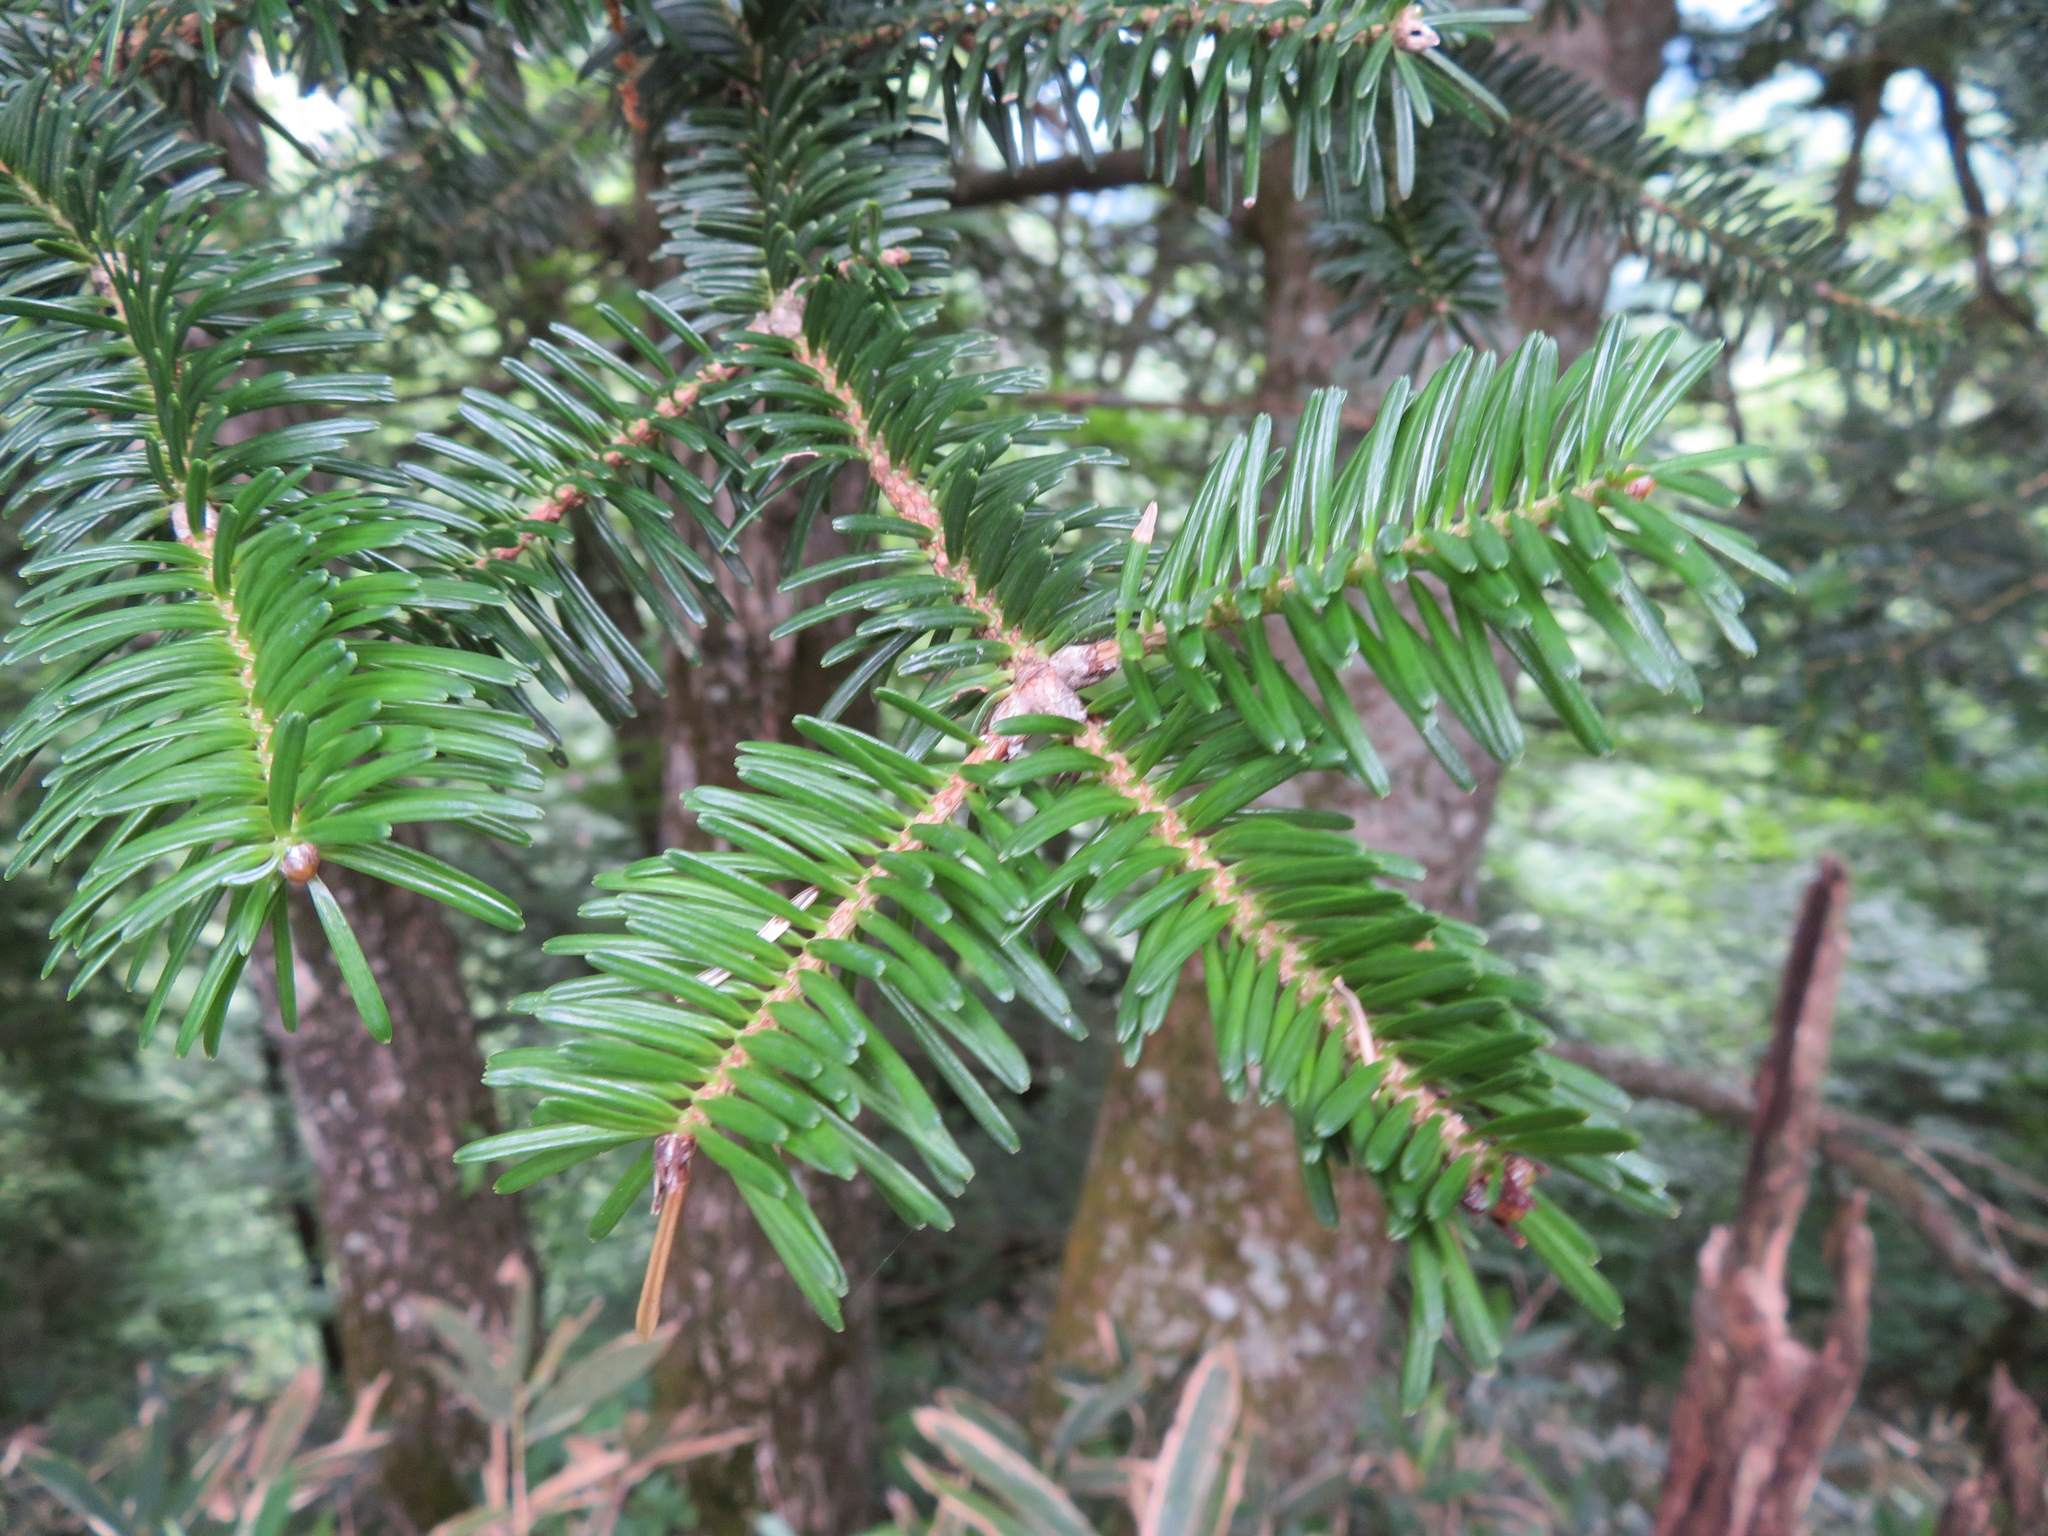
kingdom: Plantae
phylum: Tracheophyta
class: Pinopsida
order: Pinales
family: Pinaceae
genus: Abies
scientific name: Abies firma
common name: Momi fir
